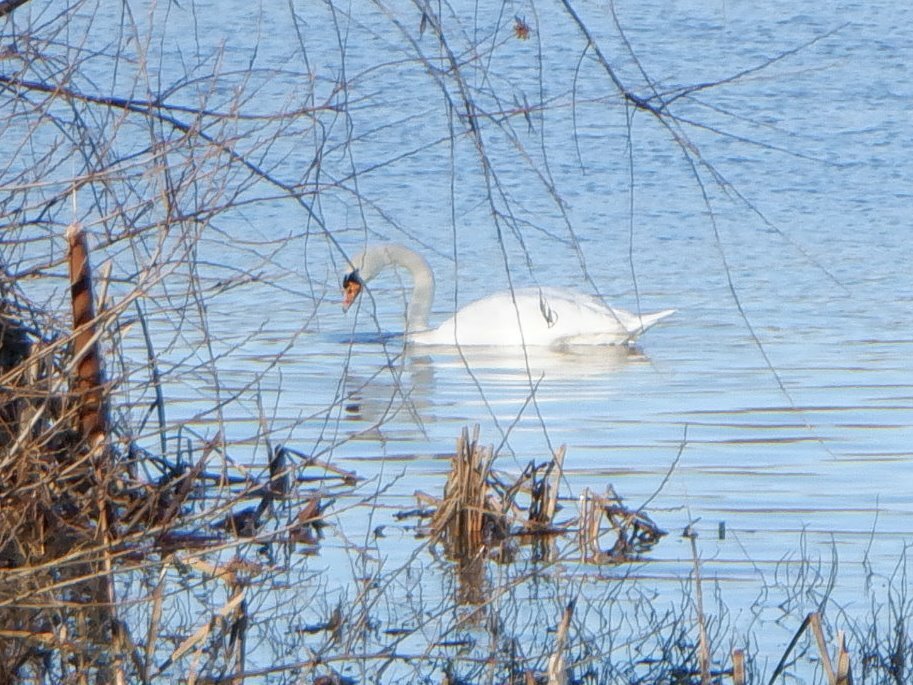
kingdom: Animalia
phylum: Chordata
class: Aves
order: Anseriformes
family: Anatidae
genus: Cygnus
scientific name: Cygnus olor
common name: Mute swan
